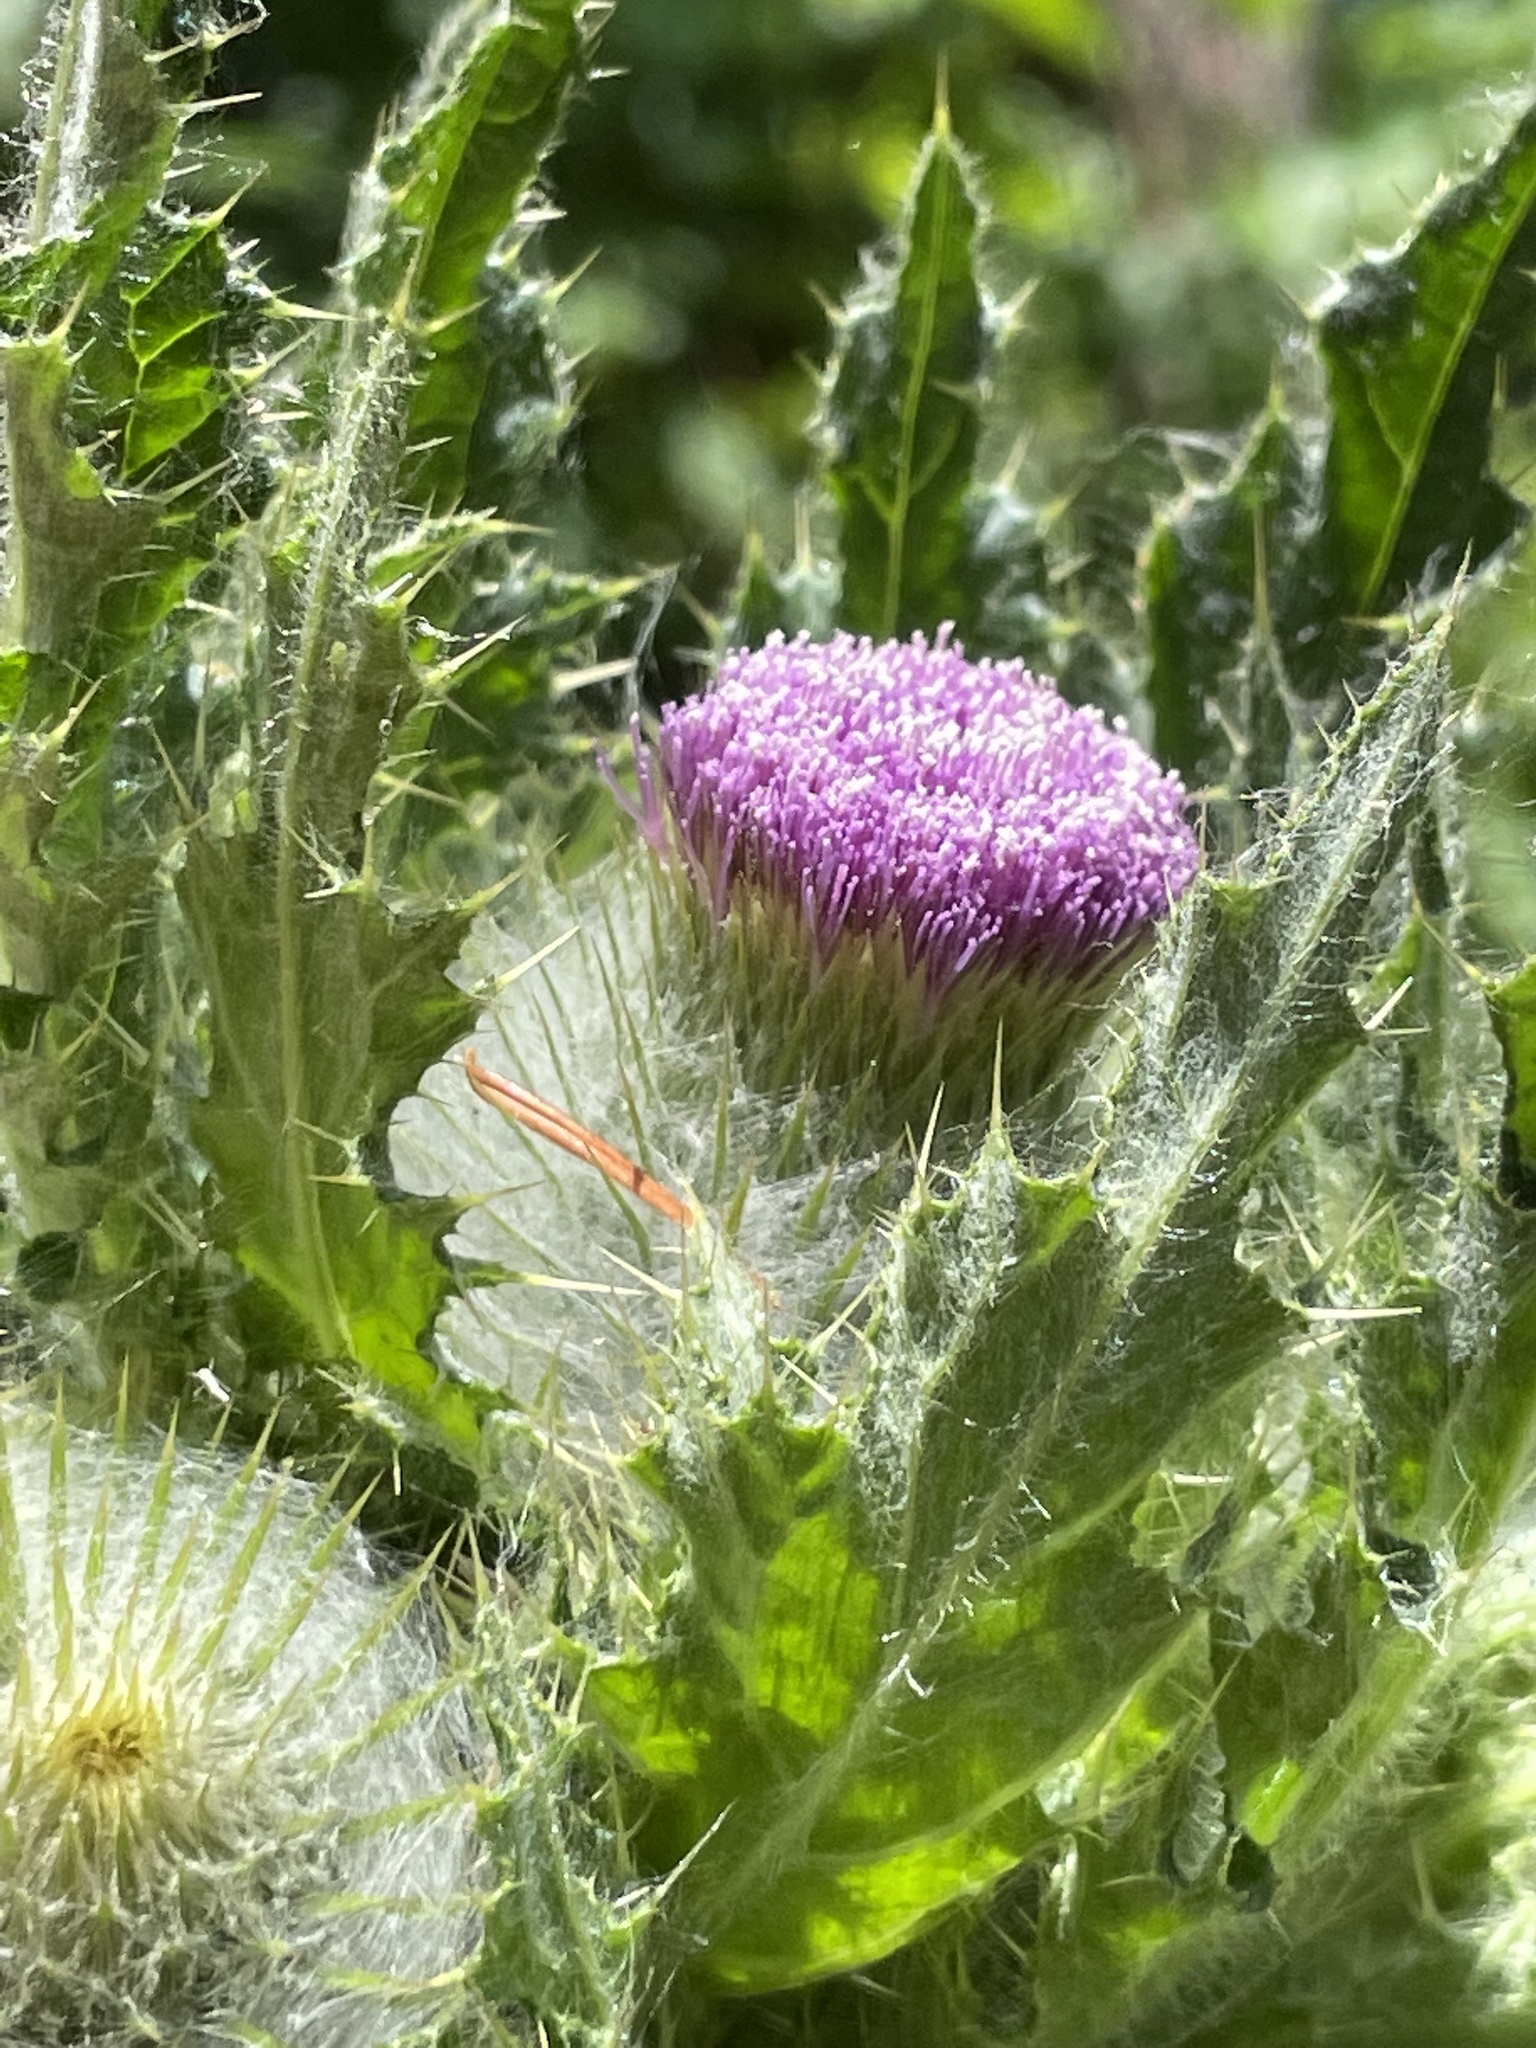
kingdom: Plantae
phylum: Tracheophyta
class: Magnoliopsida
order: Asterales
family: Asteraceae
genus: Cirsium
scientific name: Cirsium brevistylum
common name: Indian thistle
